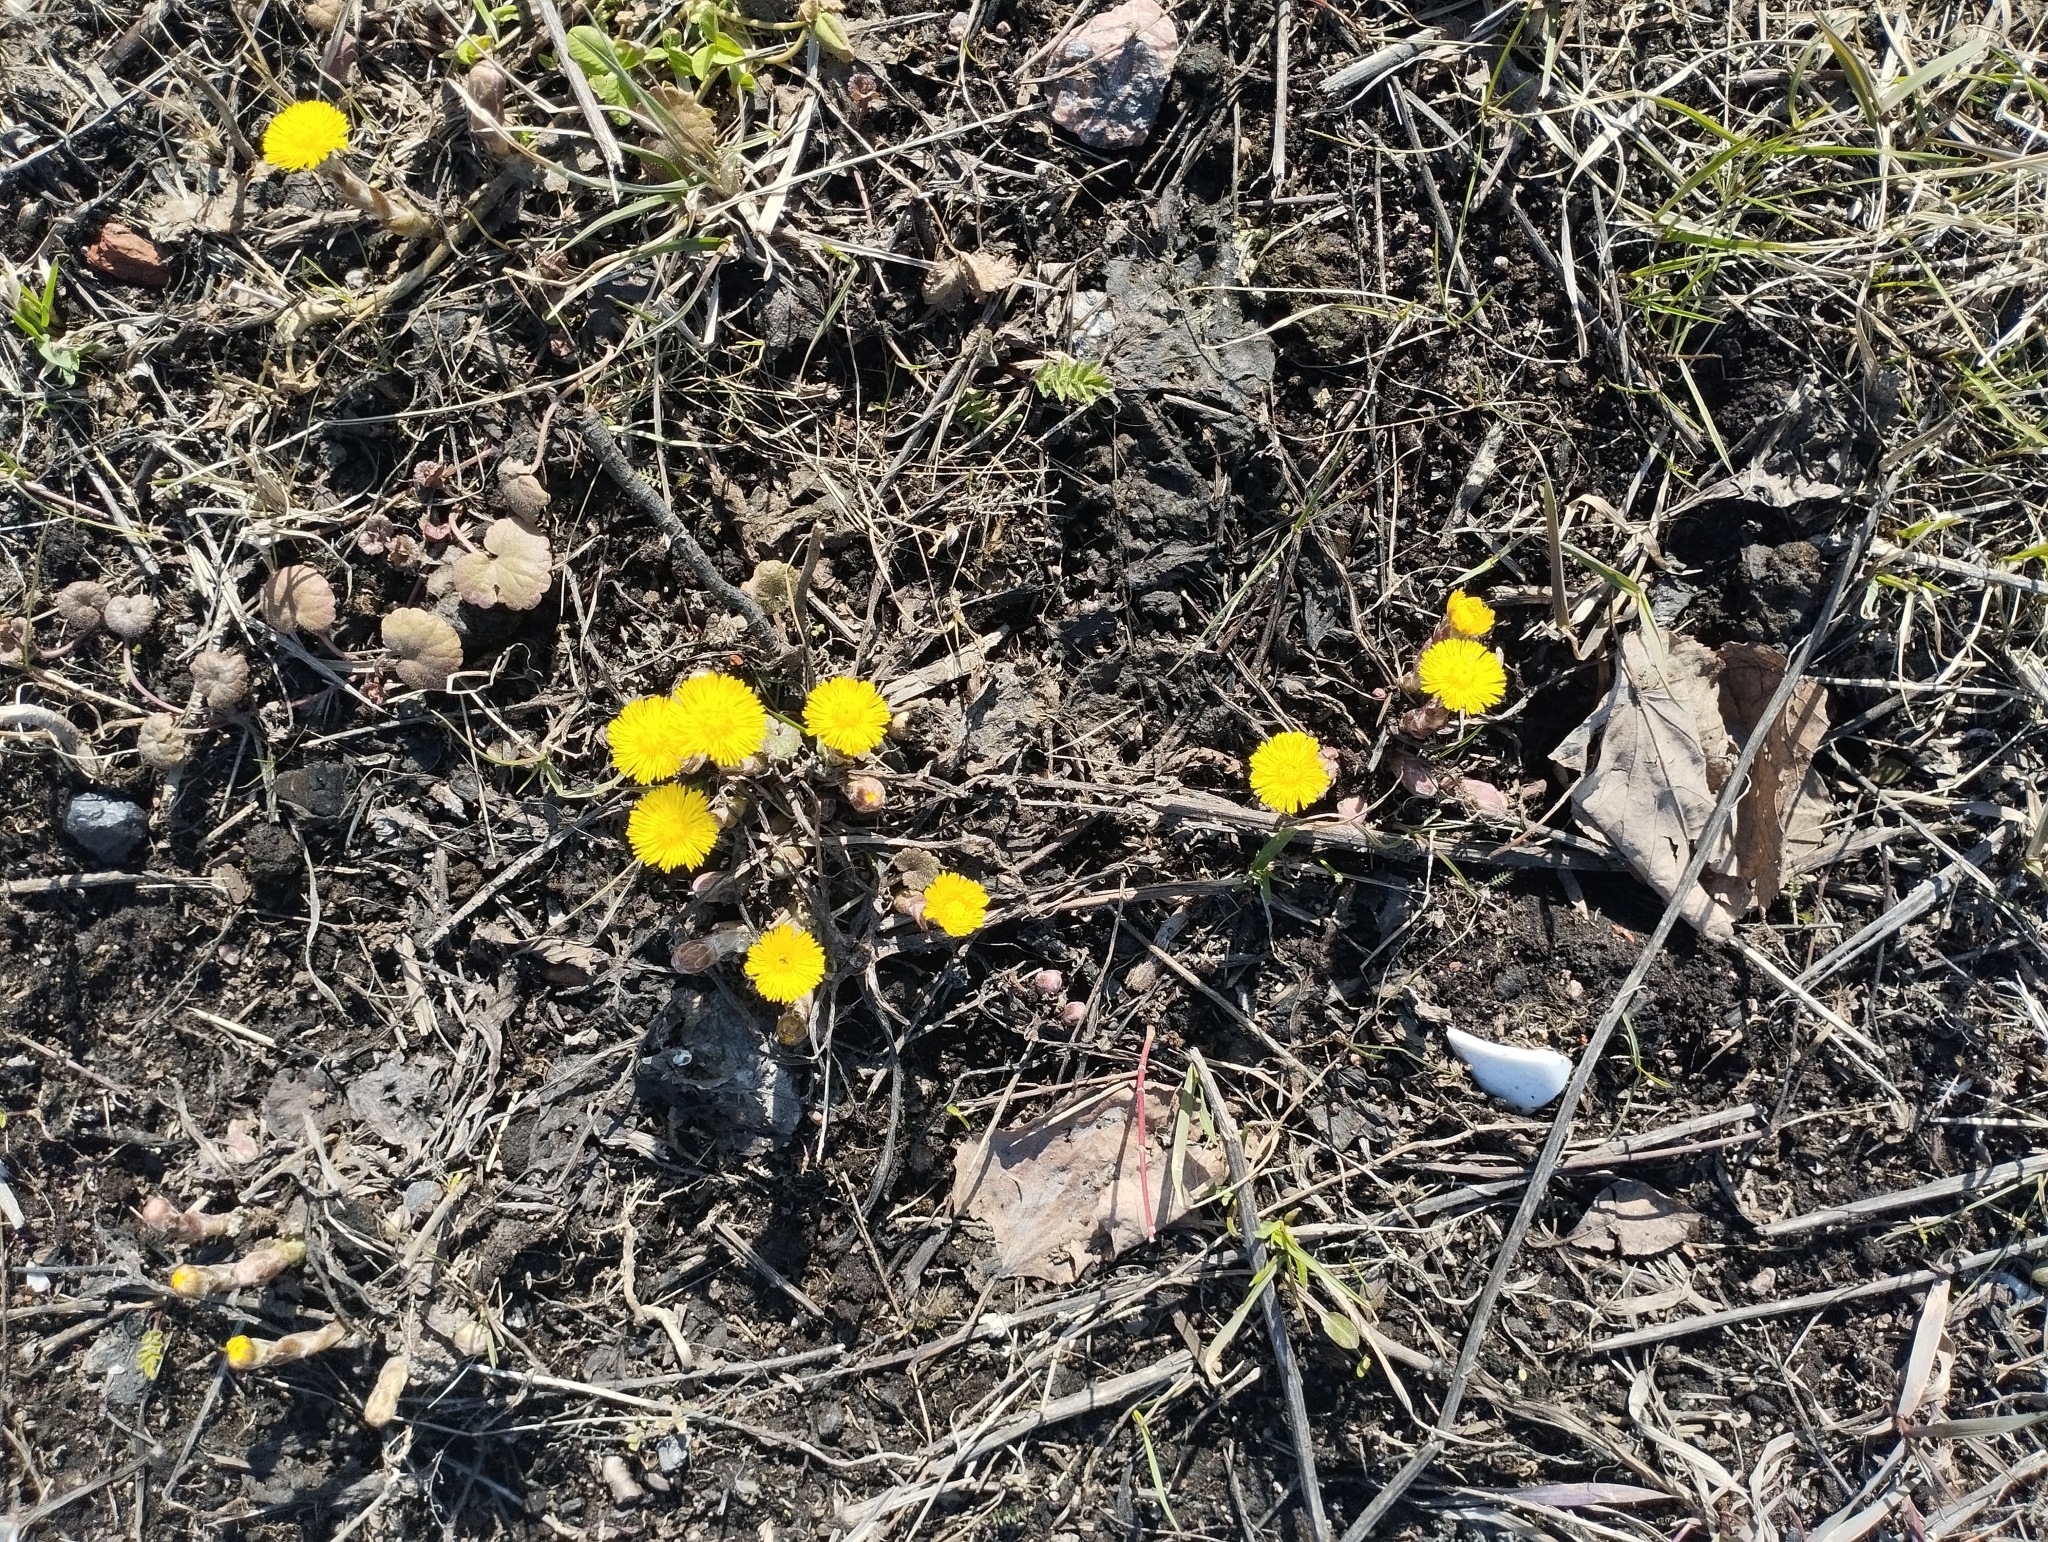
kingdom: Plantae
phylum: Tracheophyta
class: Magnoliopsida
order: Asterales
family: Asteraceae
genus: Tussilago
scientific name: Tussilago farfara
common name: Coltsfoot
